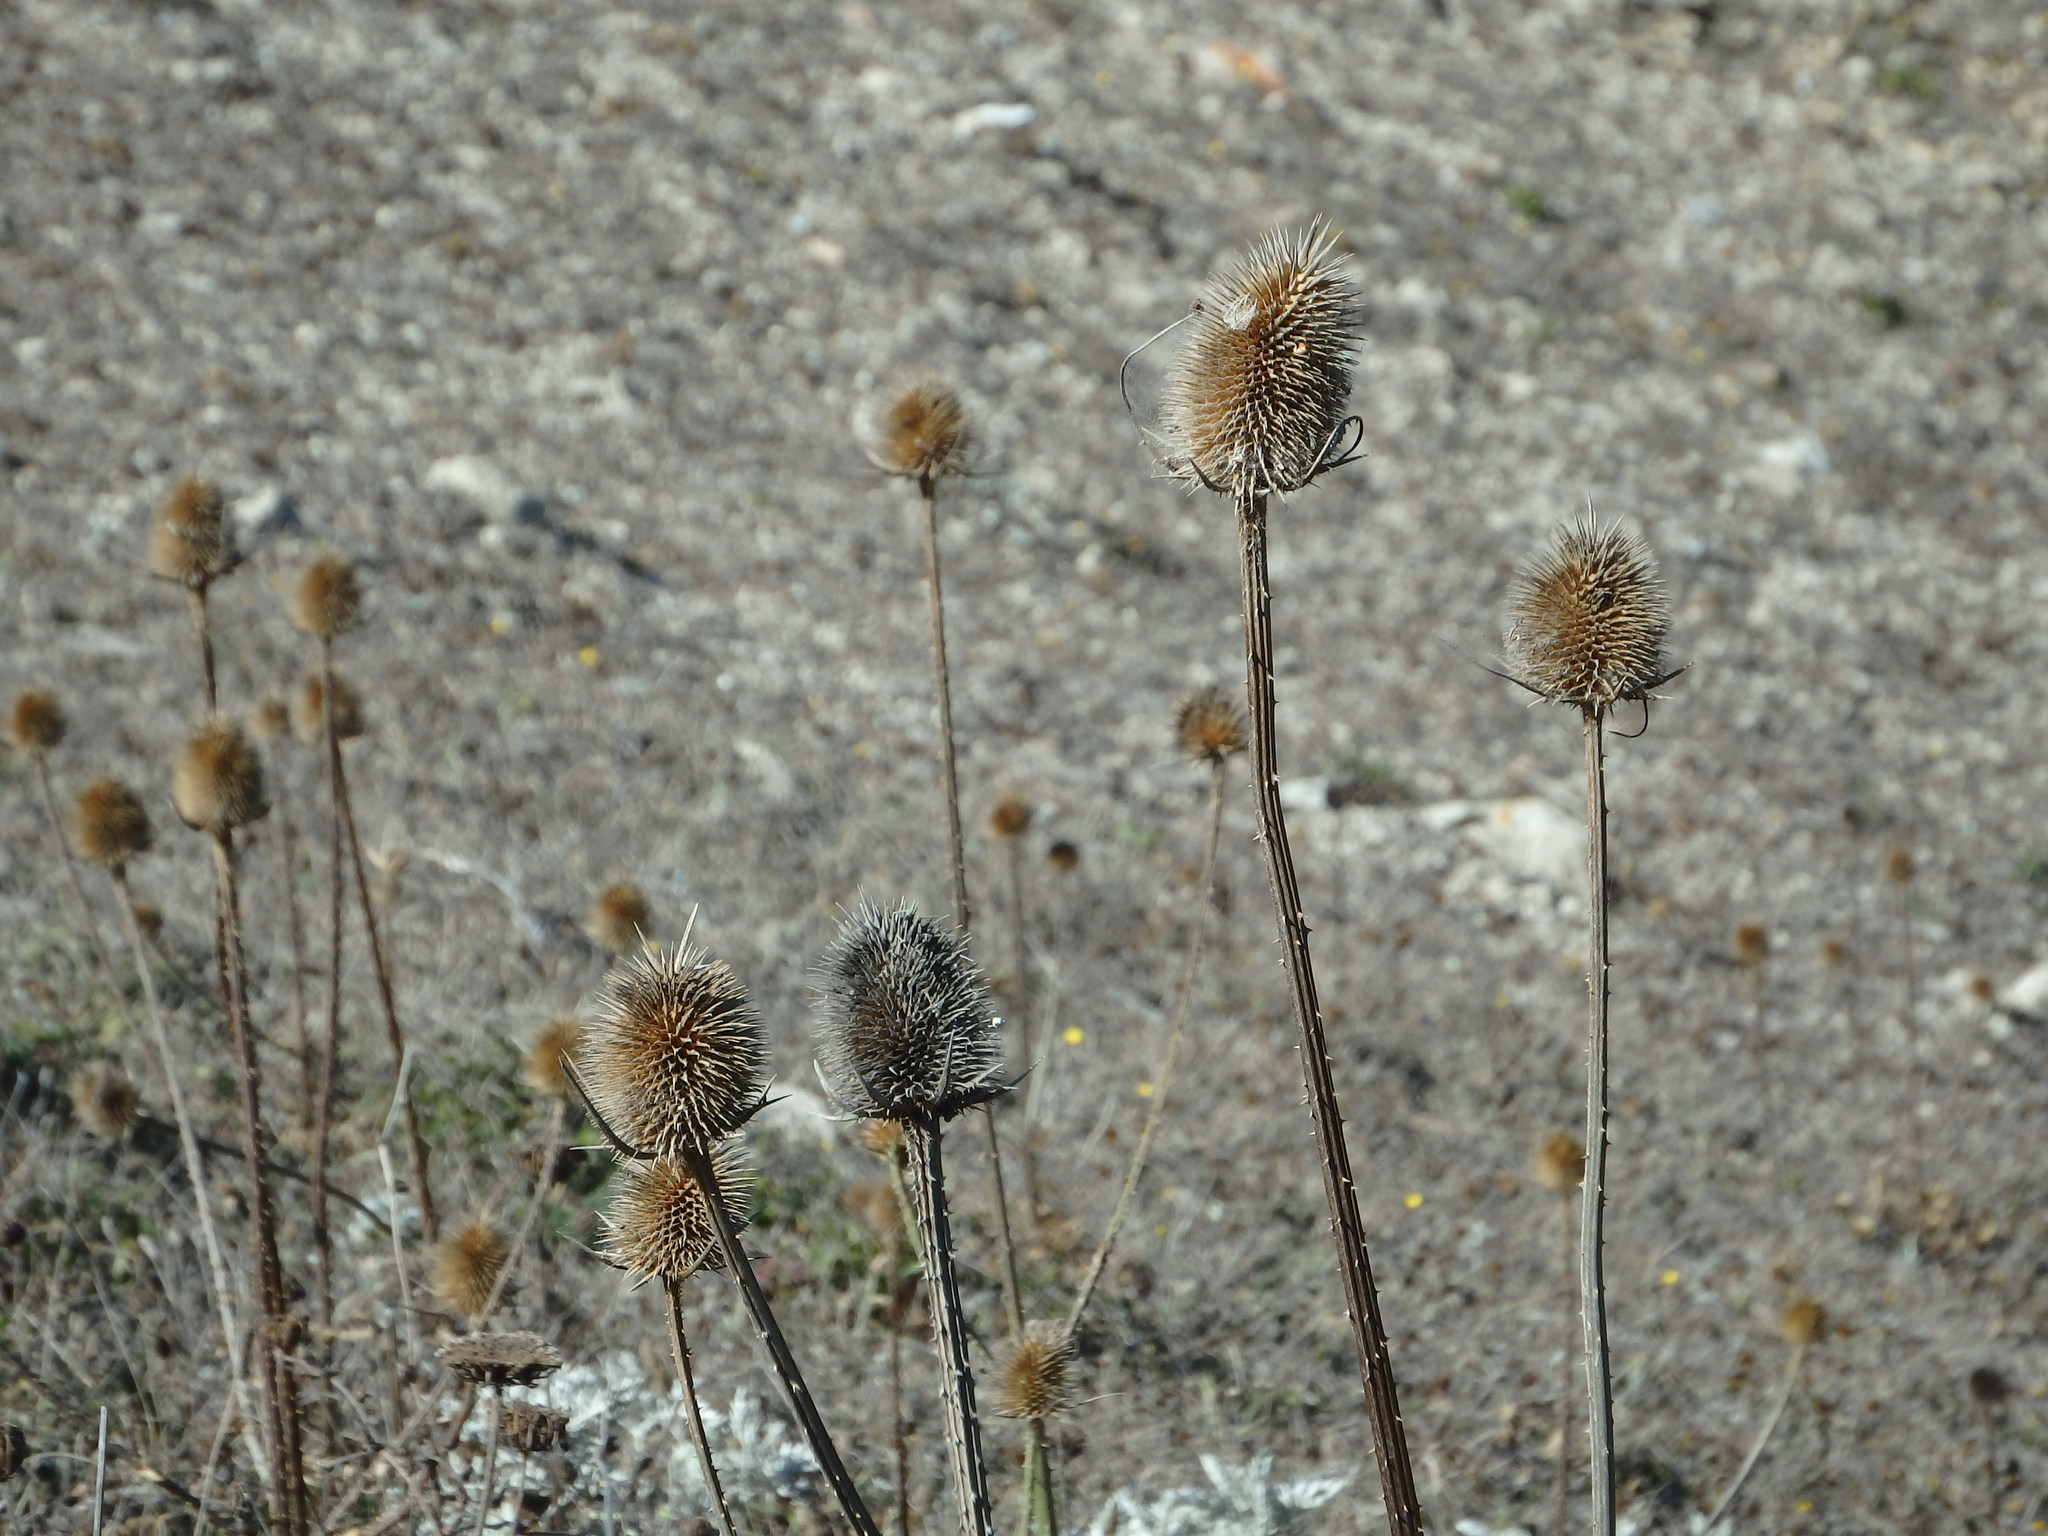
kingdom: Plantae
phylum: Tracheophyta
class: Magnoliopsida
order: Dipsacales
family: Caprifoliaceae
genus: Dipsacus
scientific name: Dipsacus comosus
